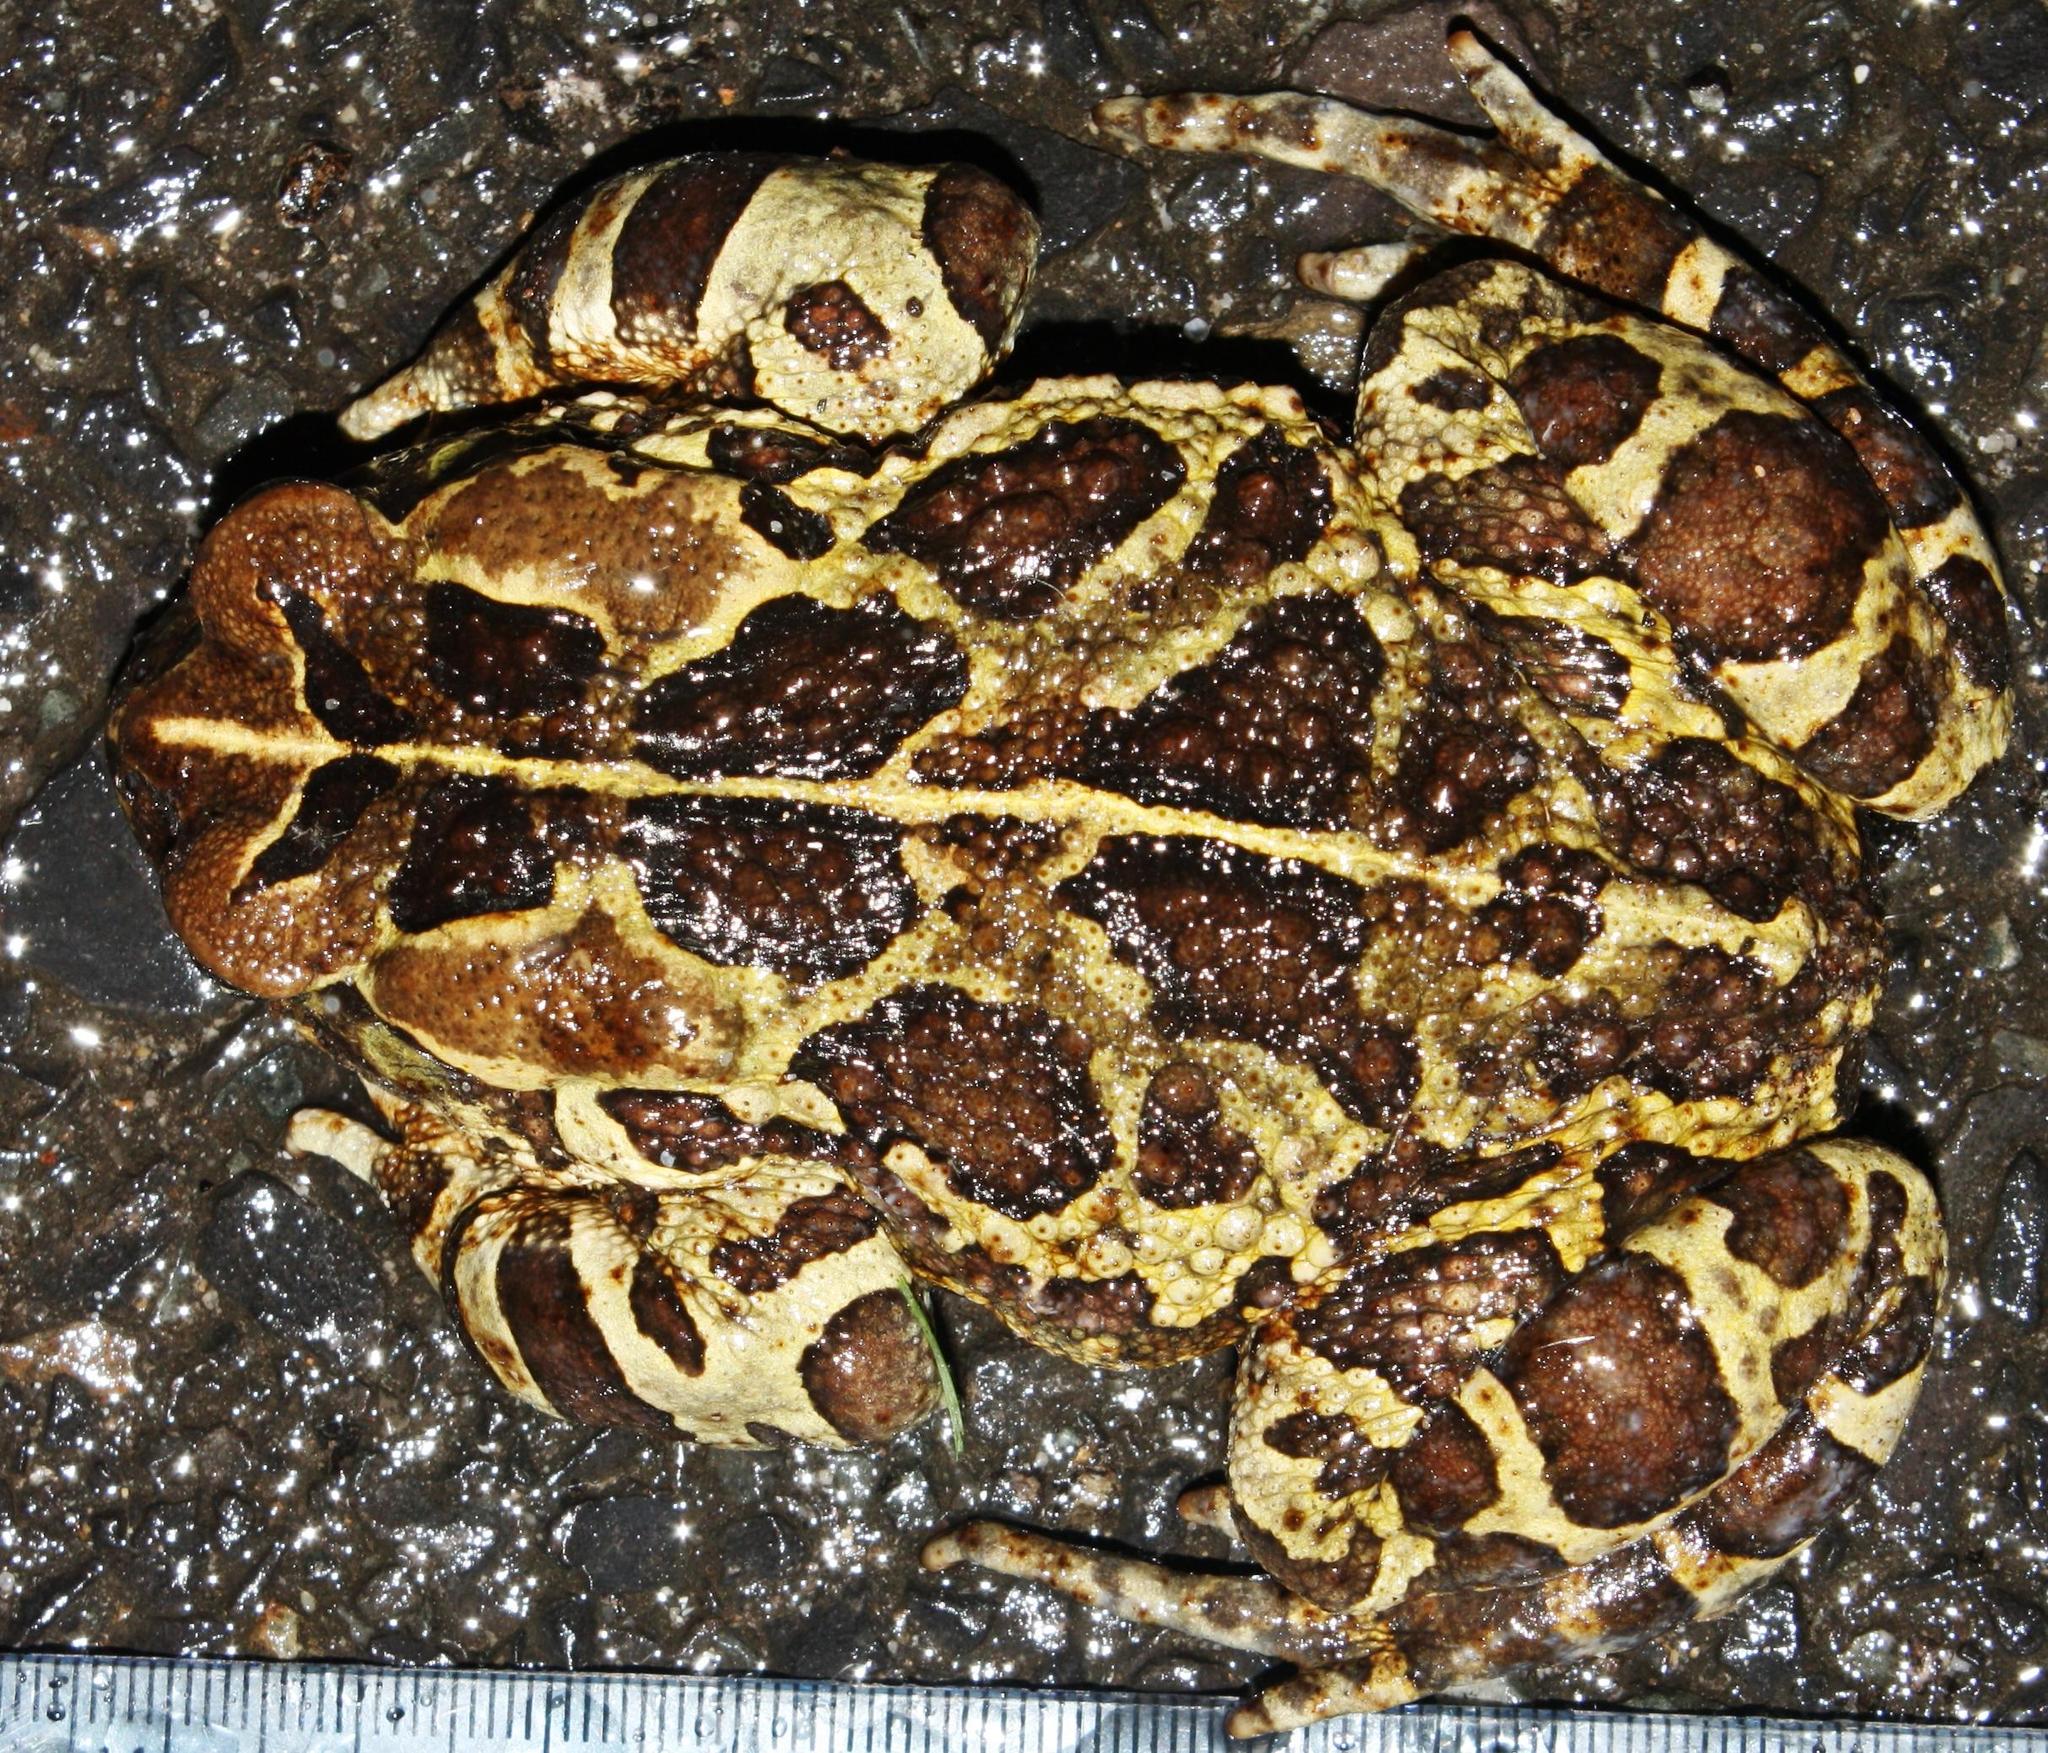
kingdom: Animalia
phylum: Chordata
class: Amphibia
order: Anura
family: Bufonidae
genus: Sclerophrys
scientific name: Sclerophrys pantherina
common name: Panther toad
